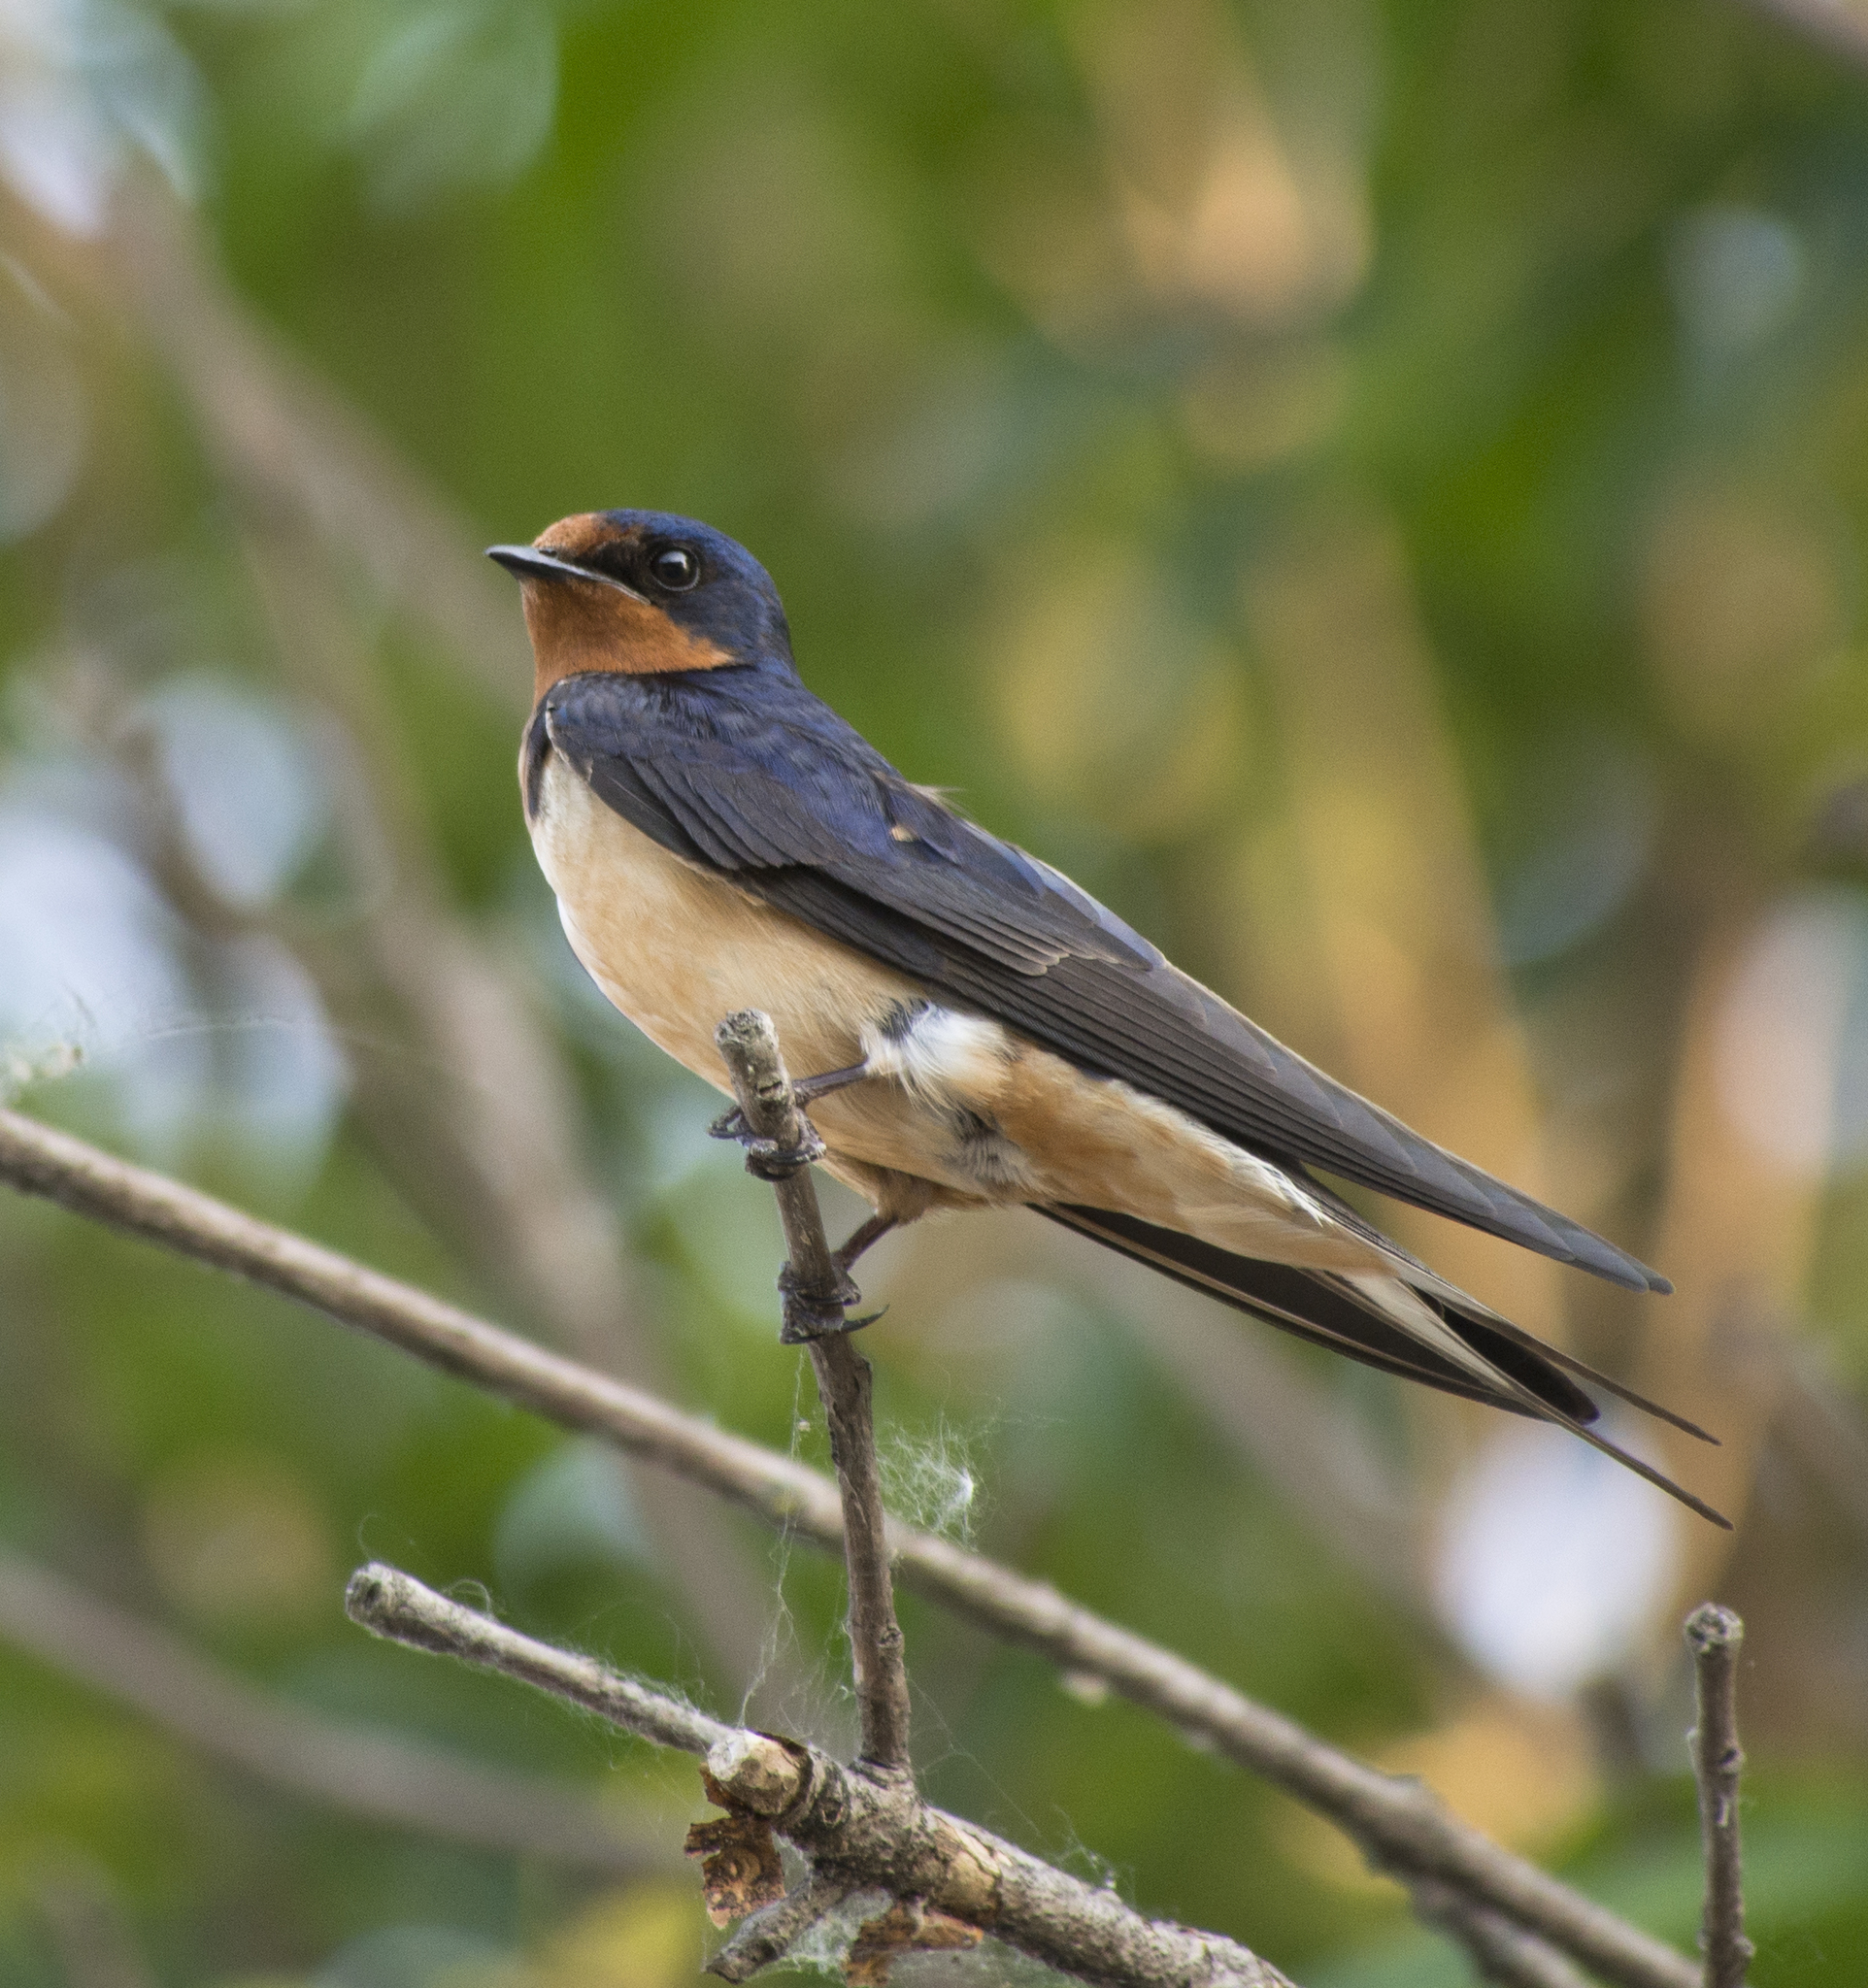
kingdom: Animalia
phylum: Chordata
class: Aves
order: Passeriformes
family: Hirundinidae
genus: Hirundo
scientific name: Hirundo rustica
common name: Barn swallow
